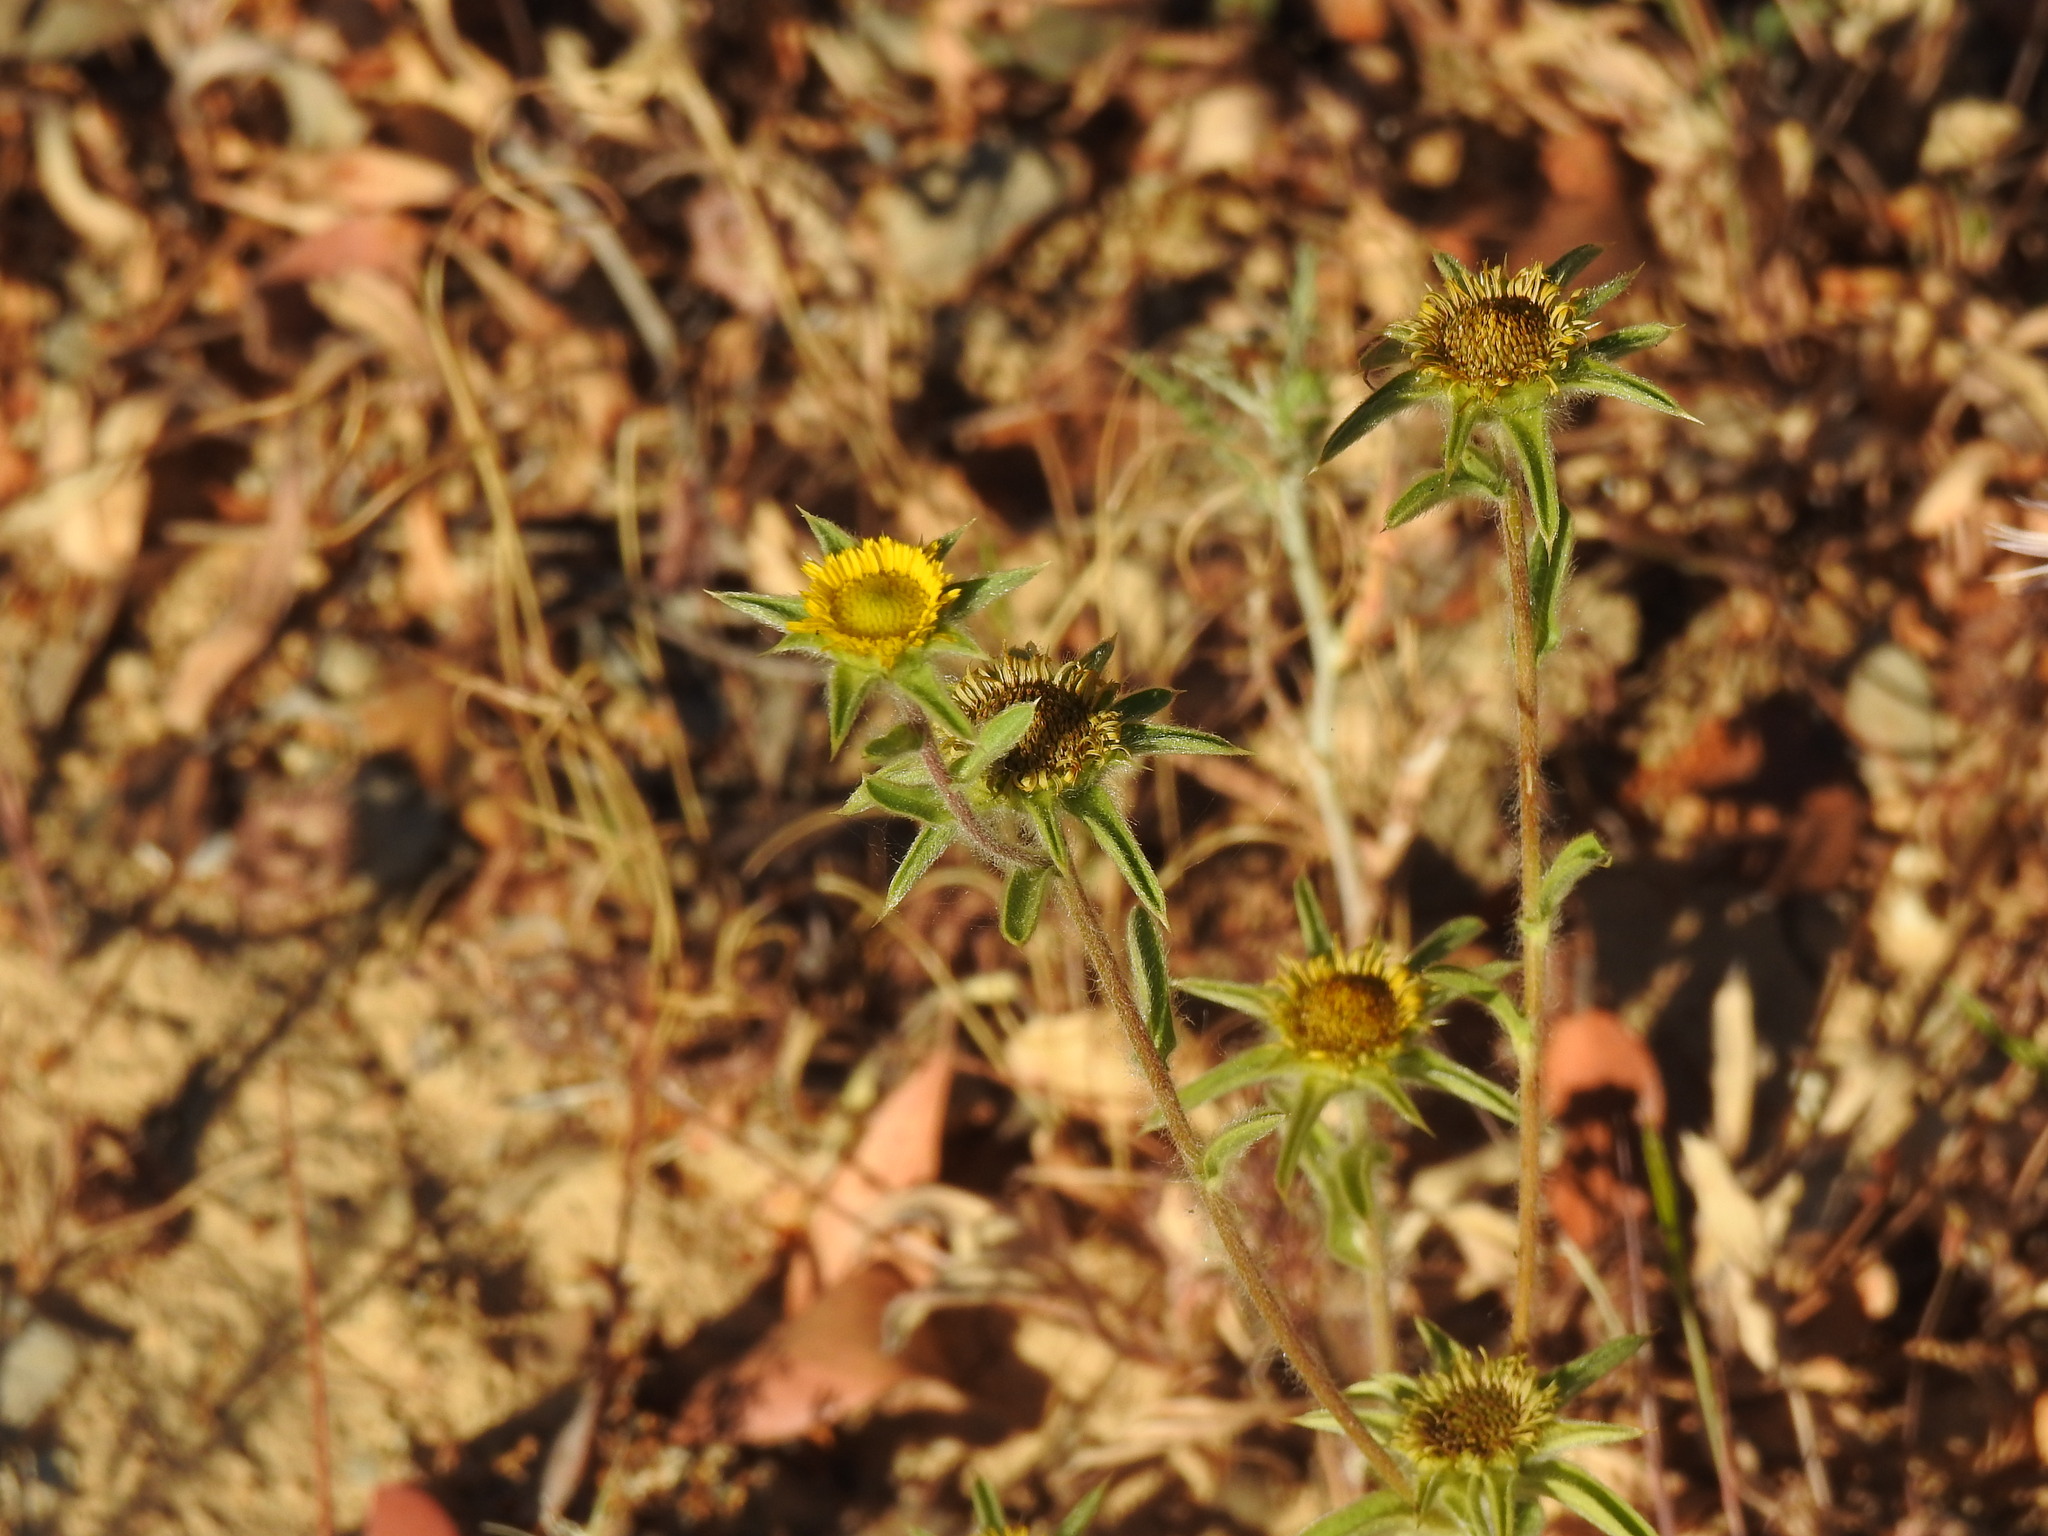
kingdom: Plantae
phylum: Tracheophyta
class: Magnoliopsida
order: Asterales
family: Asteraceae
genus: Pallenis
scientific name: Pallenis spinosa
